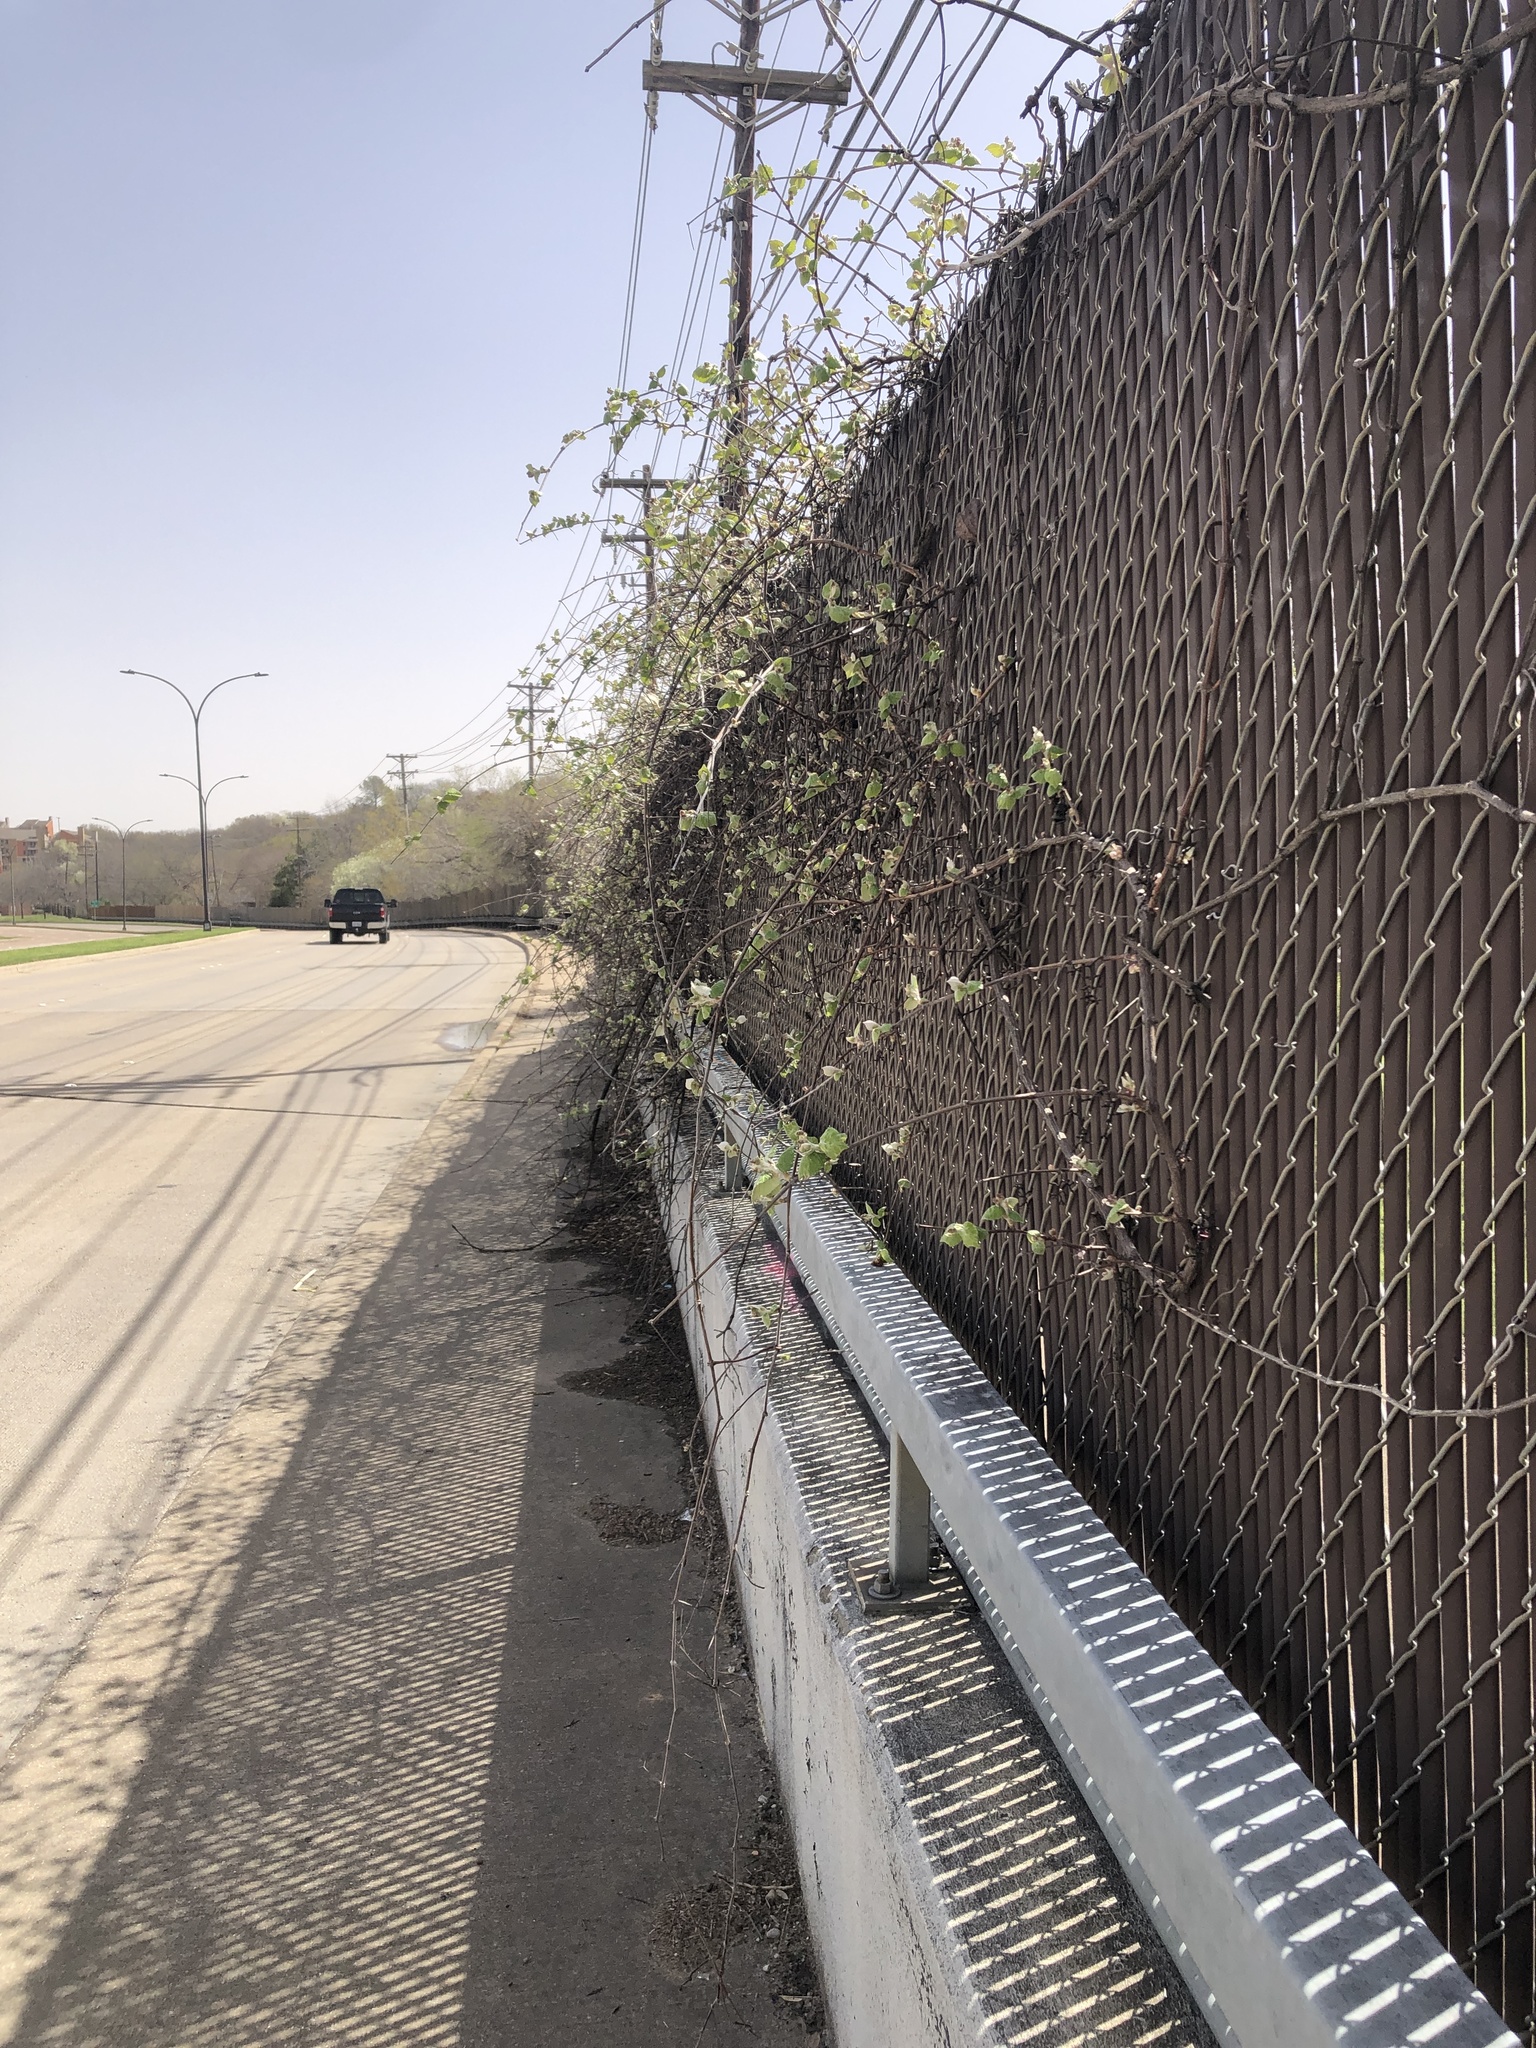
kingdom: Plantae
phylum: Tracheophyta
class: Magnoliopsida
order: Vitales
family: Vitaceae
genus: Vitis
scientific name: Vitis mustangensis
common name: Mustang grape
